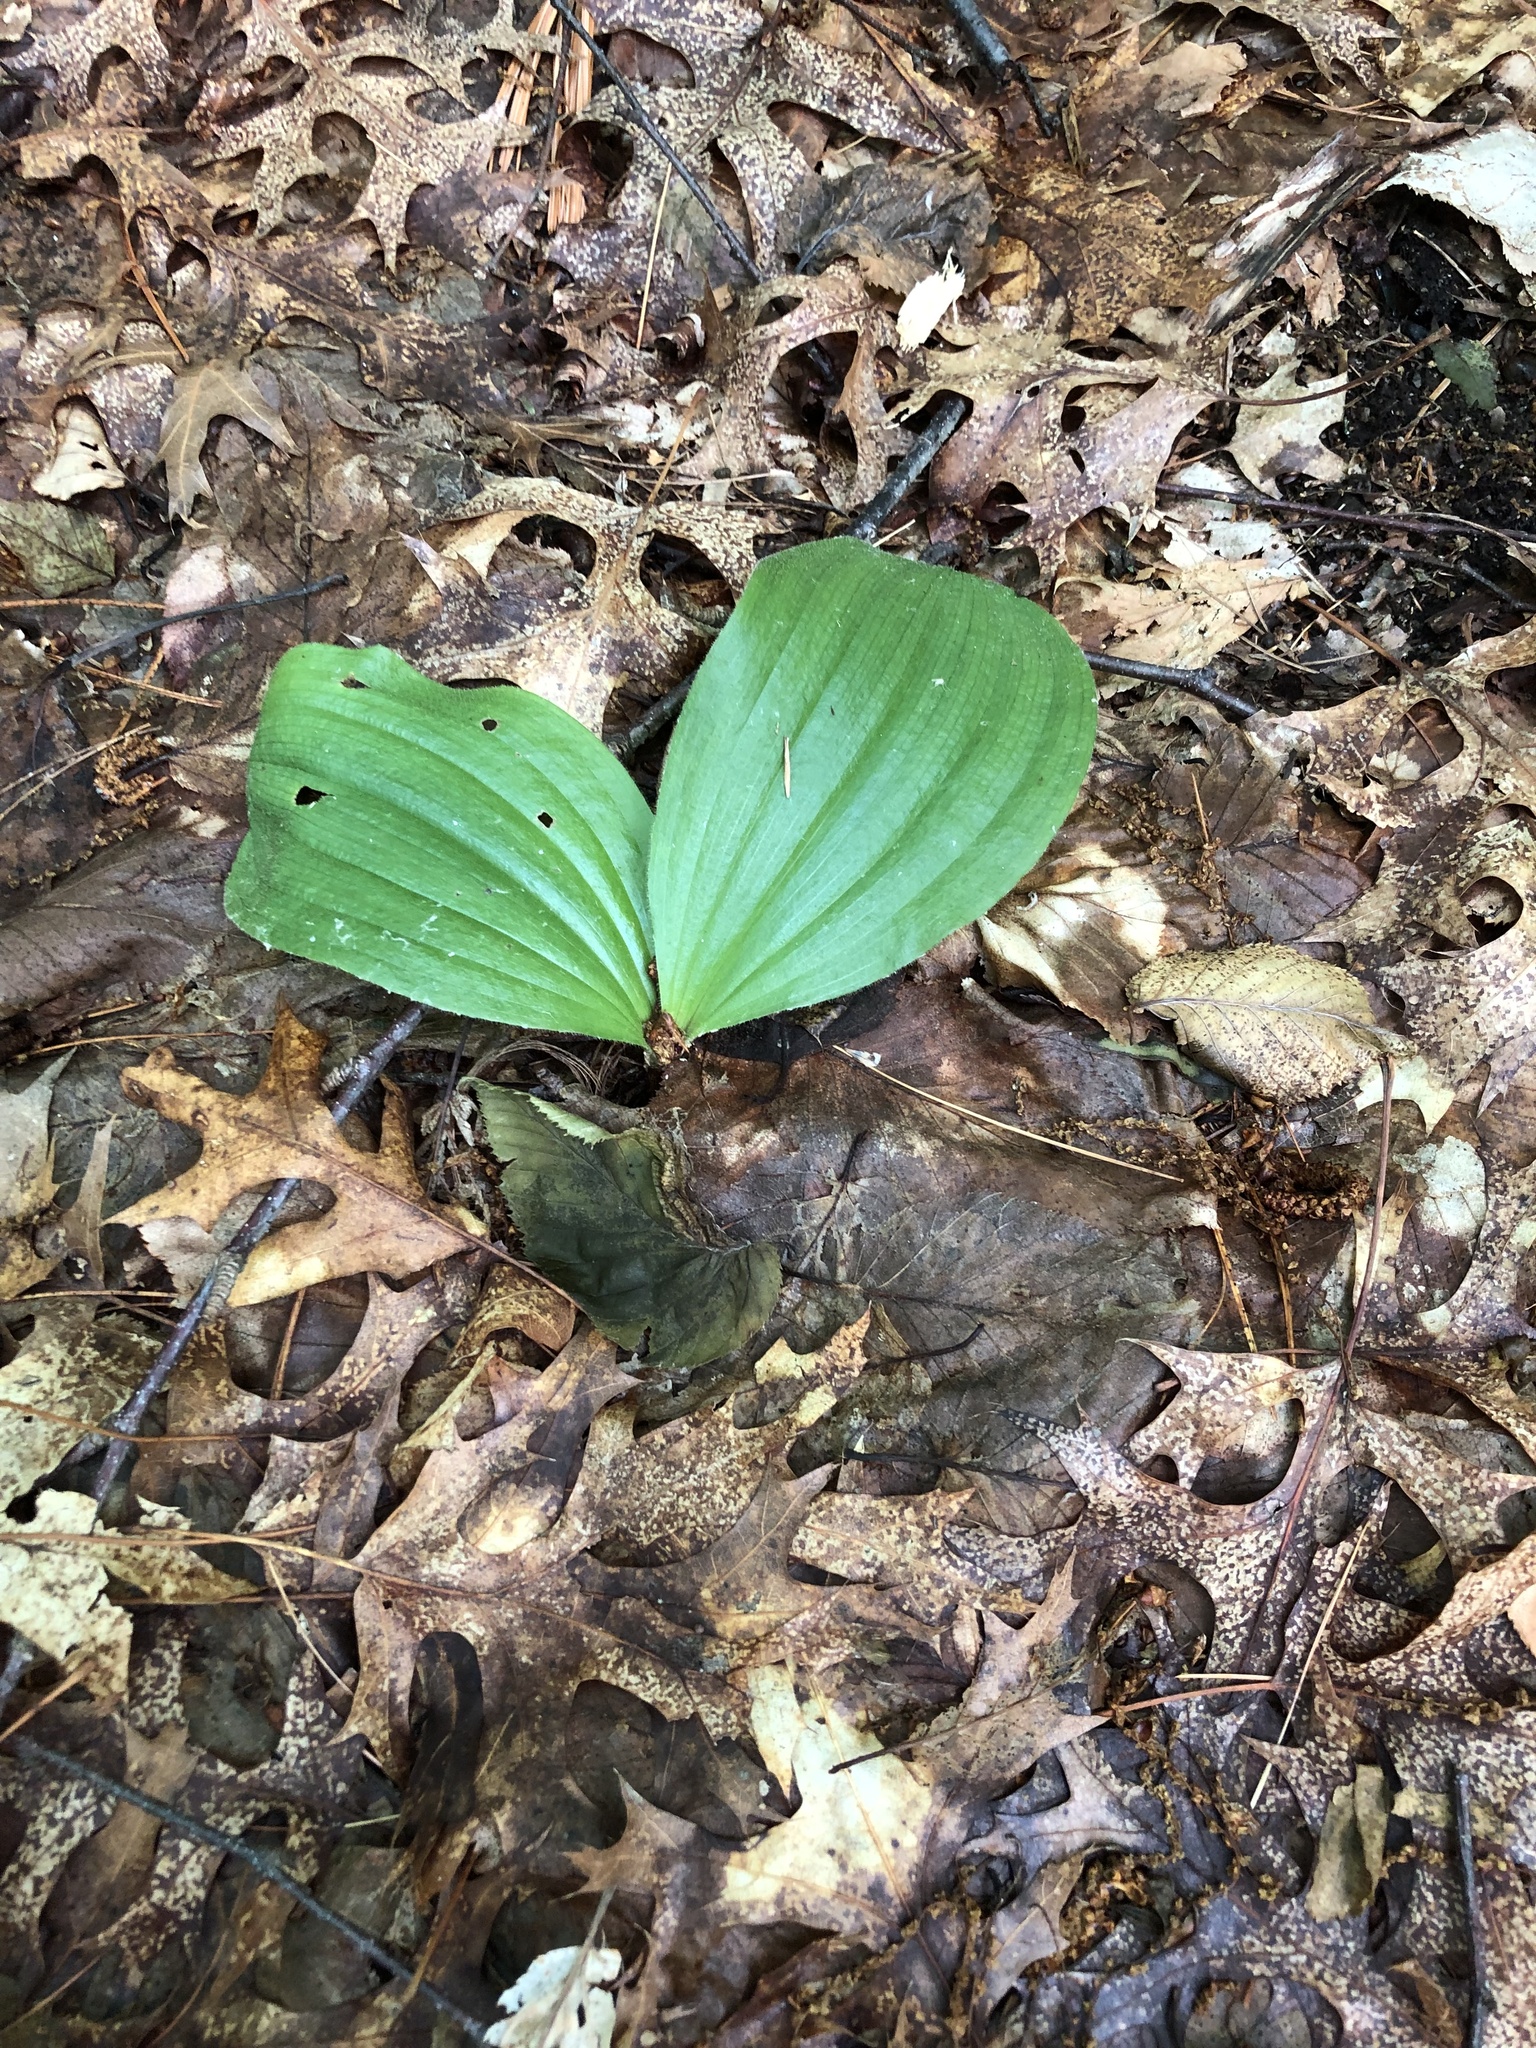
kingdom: Plantae
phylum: Tracheophyta
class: Liliopsida
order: Asparagales
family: Orchidaceae
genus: Cypripedium
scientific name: Cypripedium acaule
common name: Pink lady's-slipper
